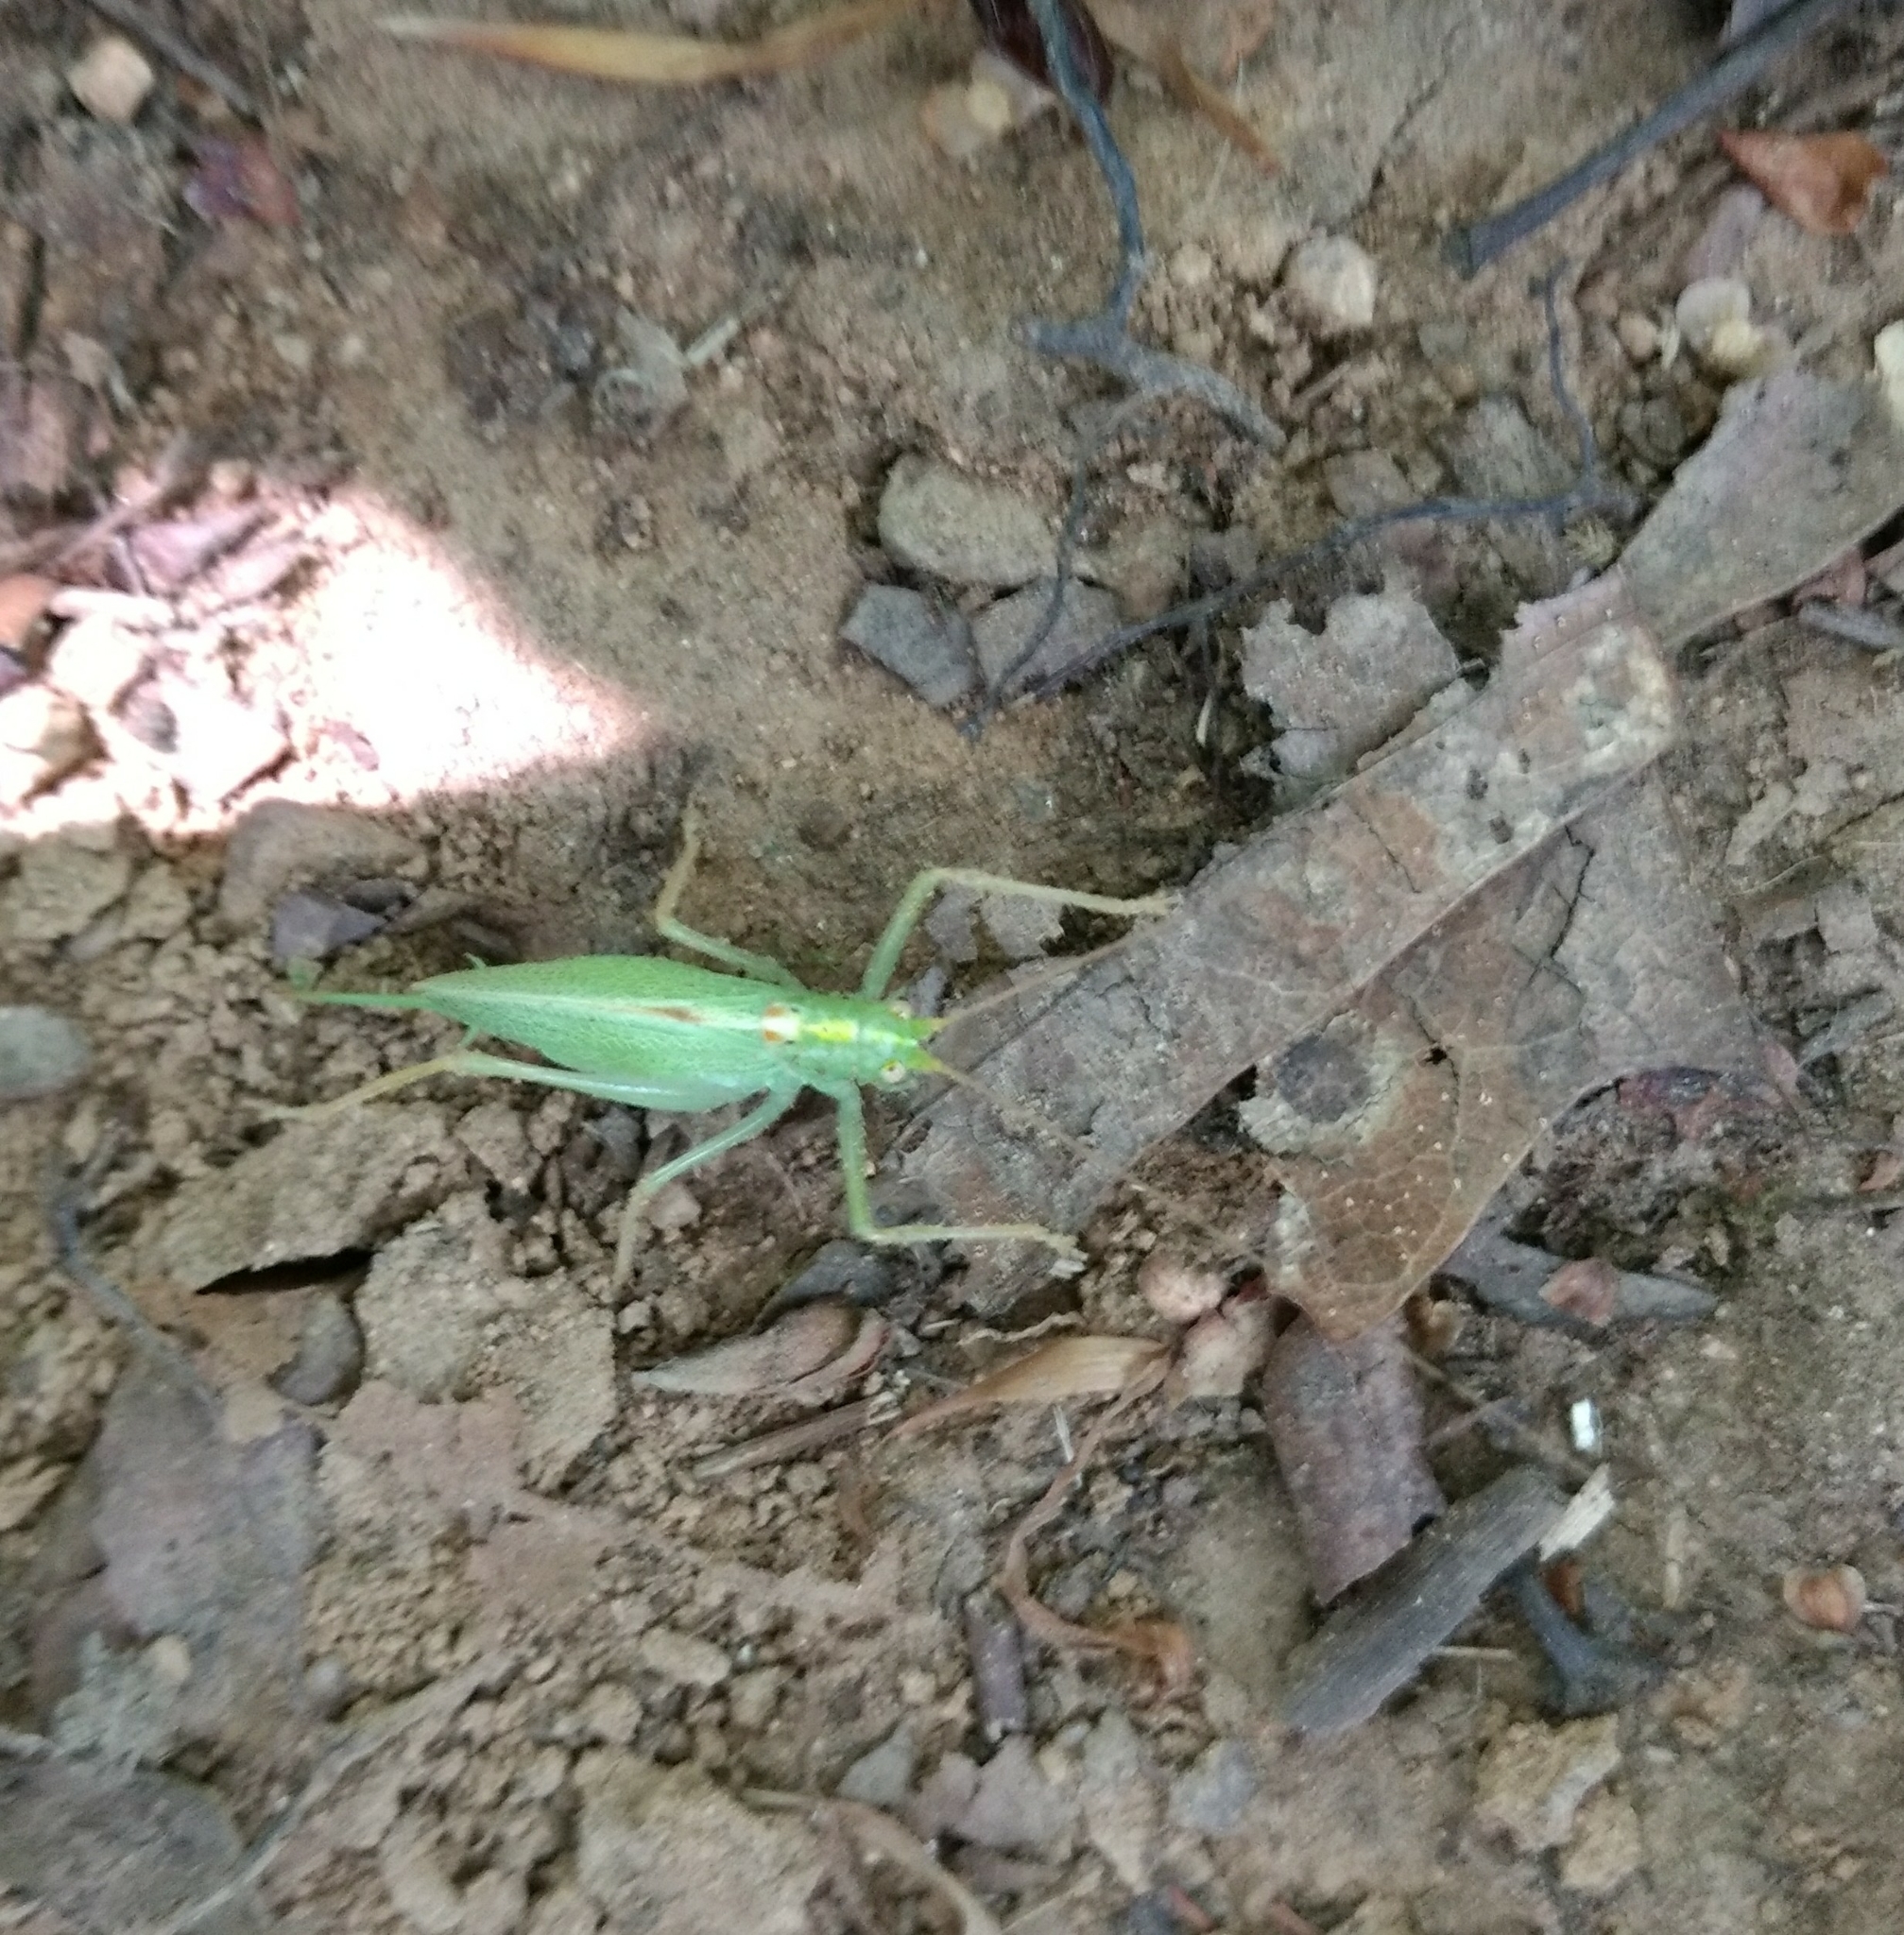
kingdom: Animalia
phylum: Arthropoda
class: Insecta
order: Orthoptera
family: Tettigoniidae
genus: Meconema
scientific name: Meconema thalassinum
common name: Oak bush-cricket
